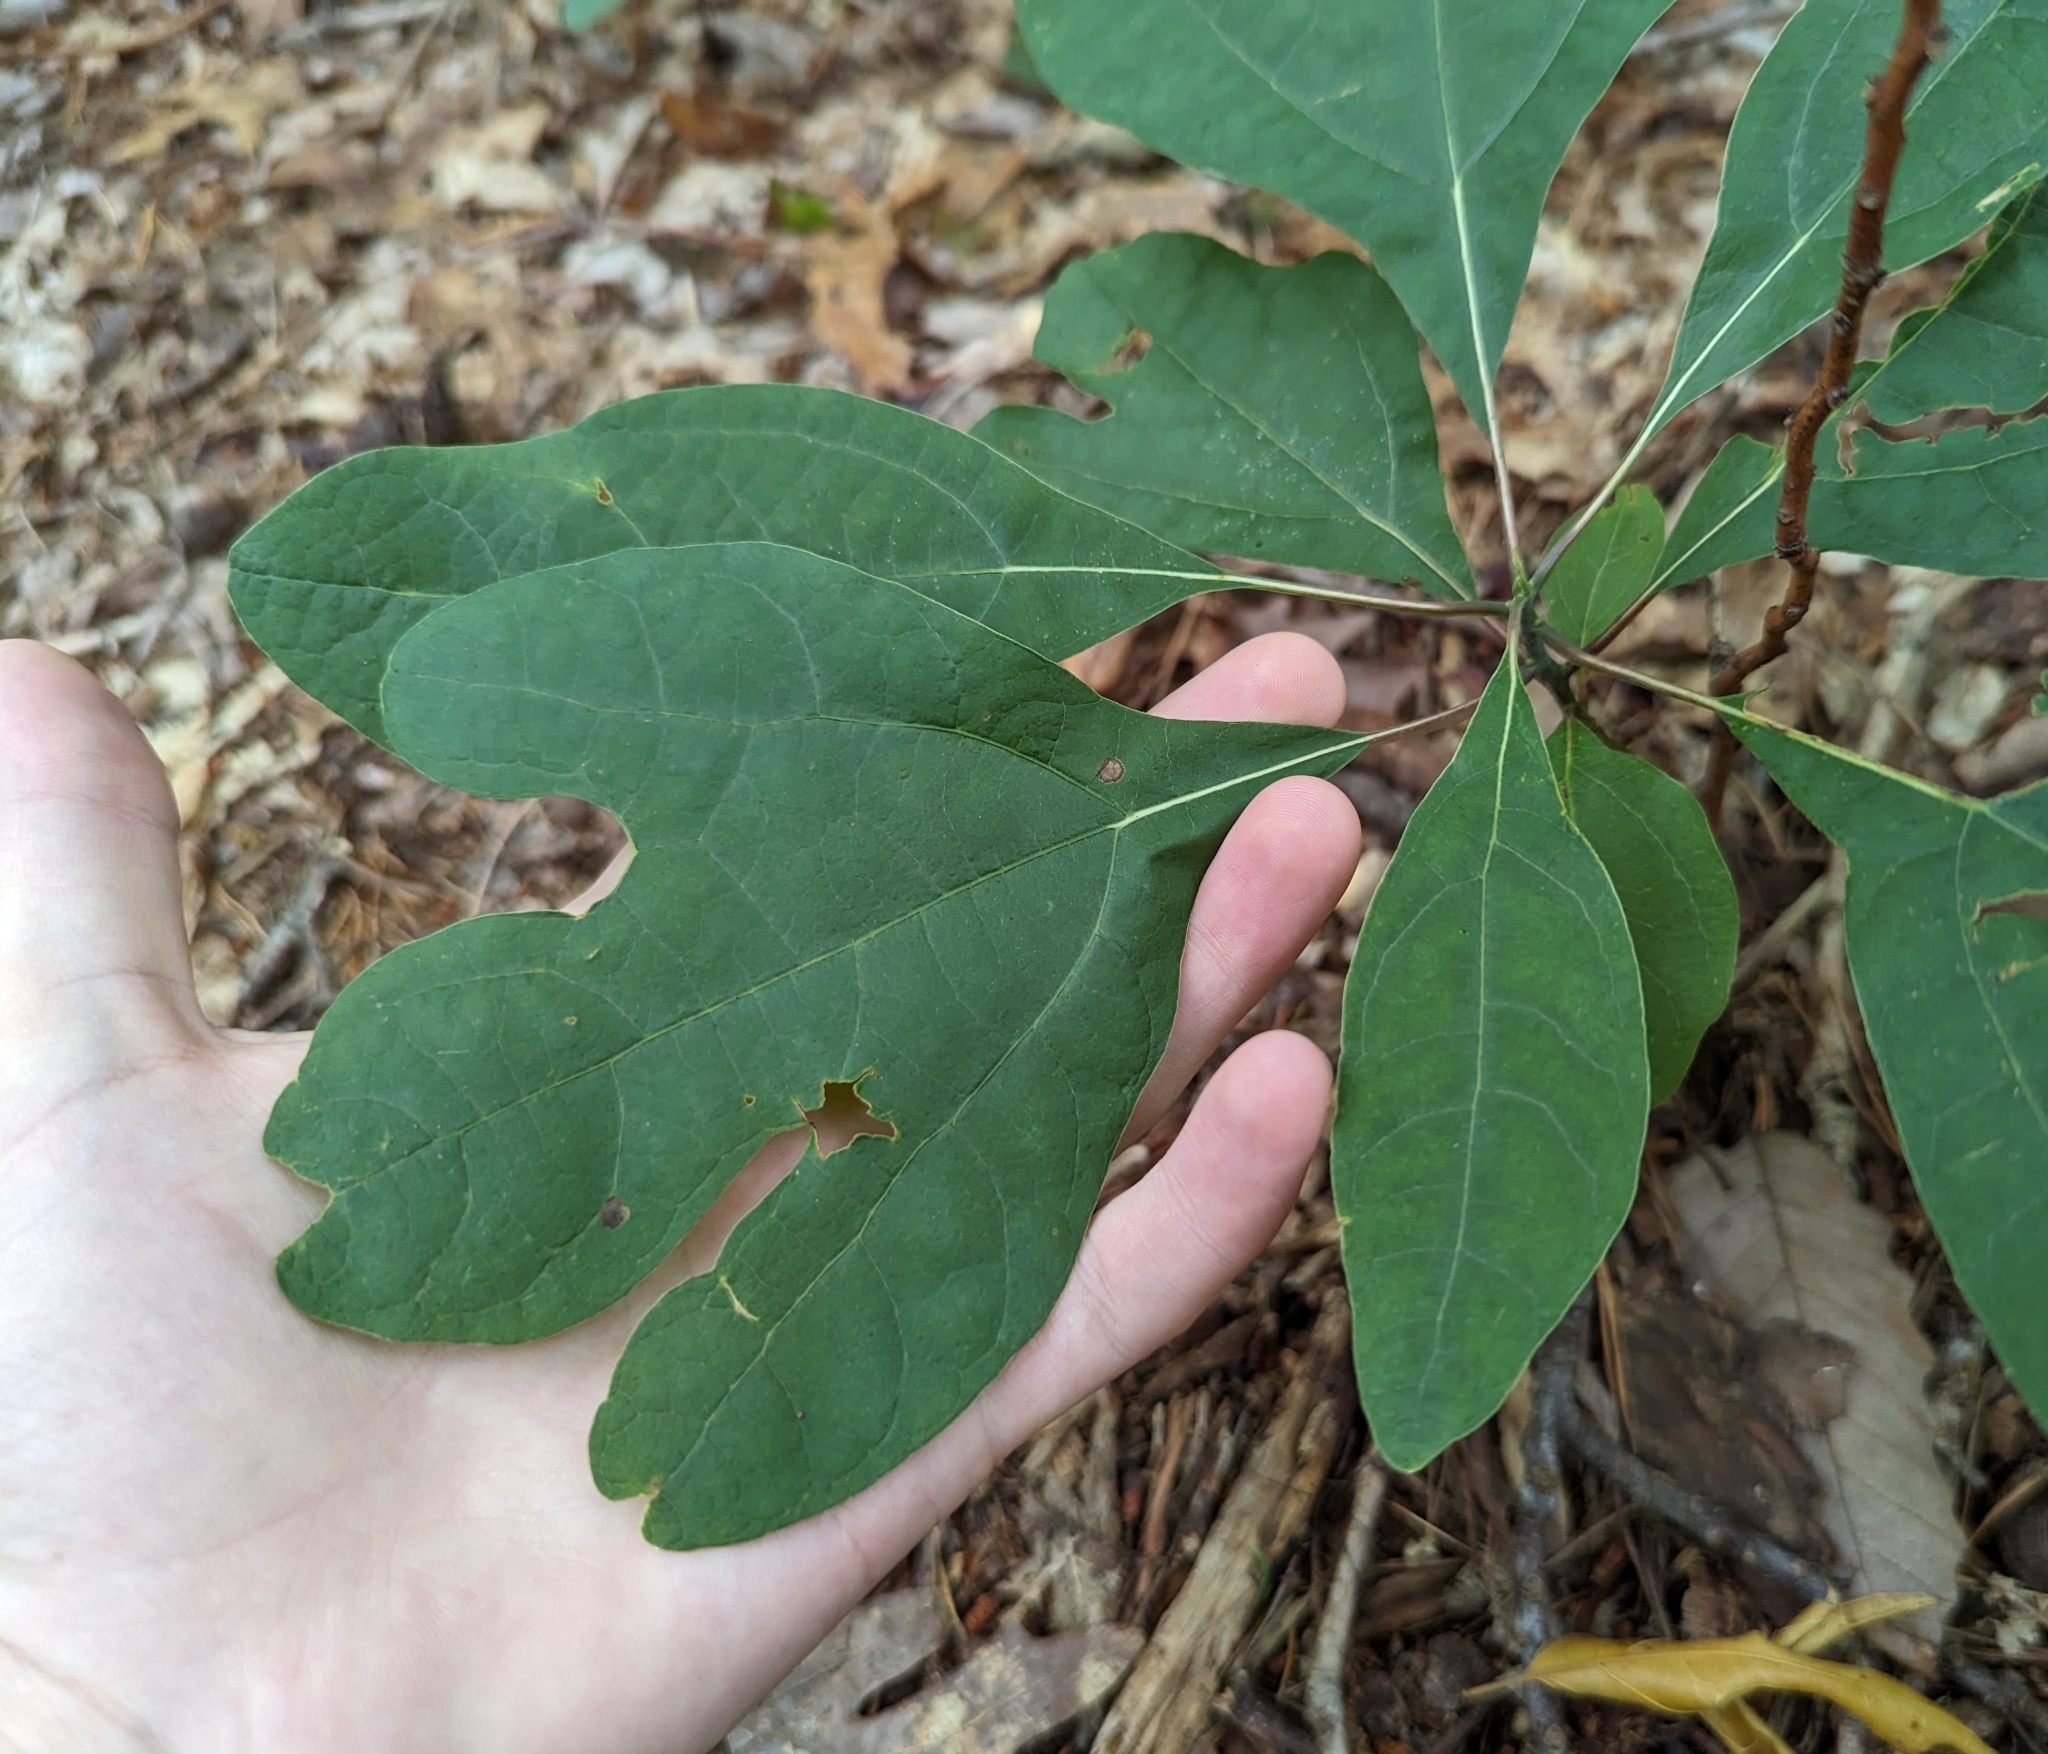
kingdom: Plantae
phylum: Tracheophyta
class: Magnoliopsida
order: Laurales
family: Lauraceae
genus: Sassafras
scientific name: Sassafras albidum
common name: Sassafras
